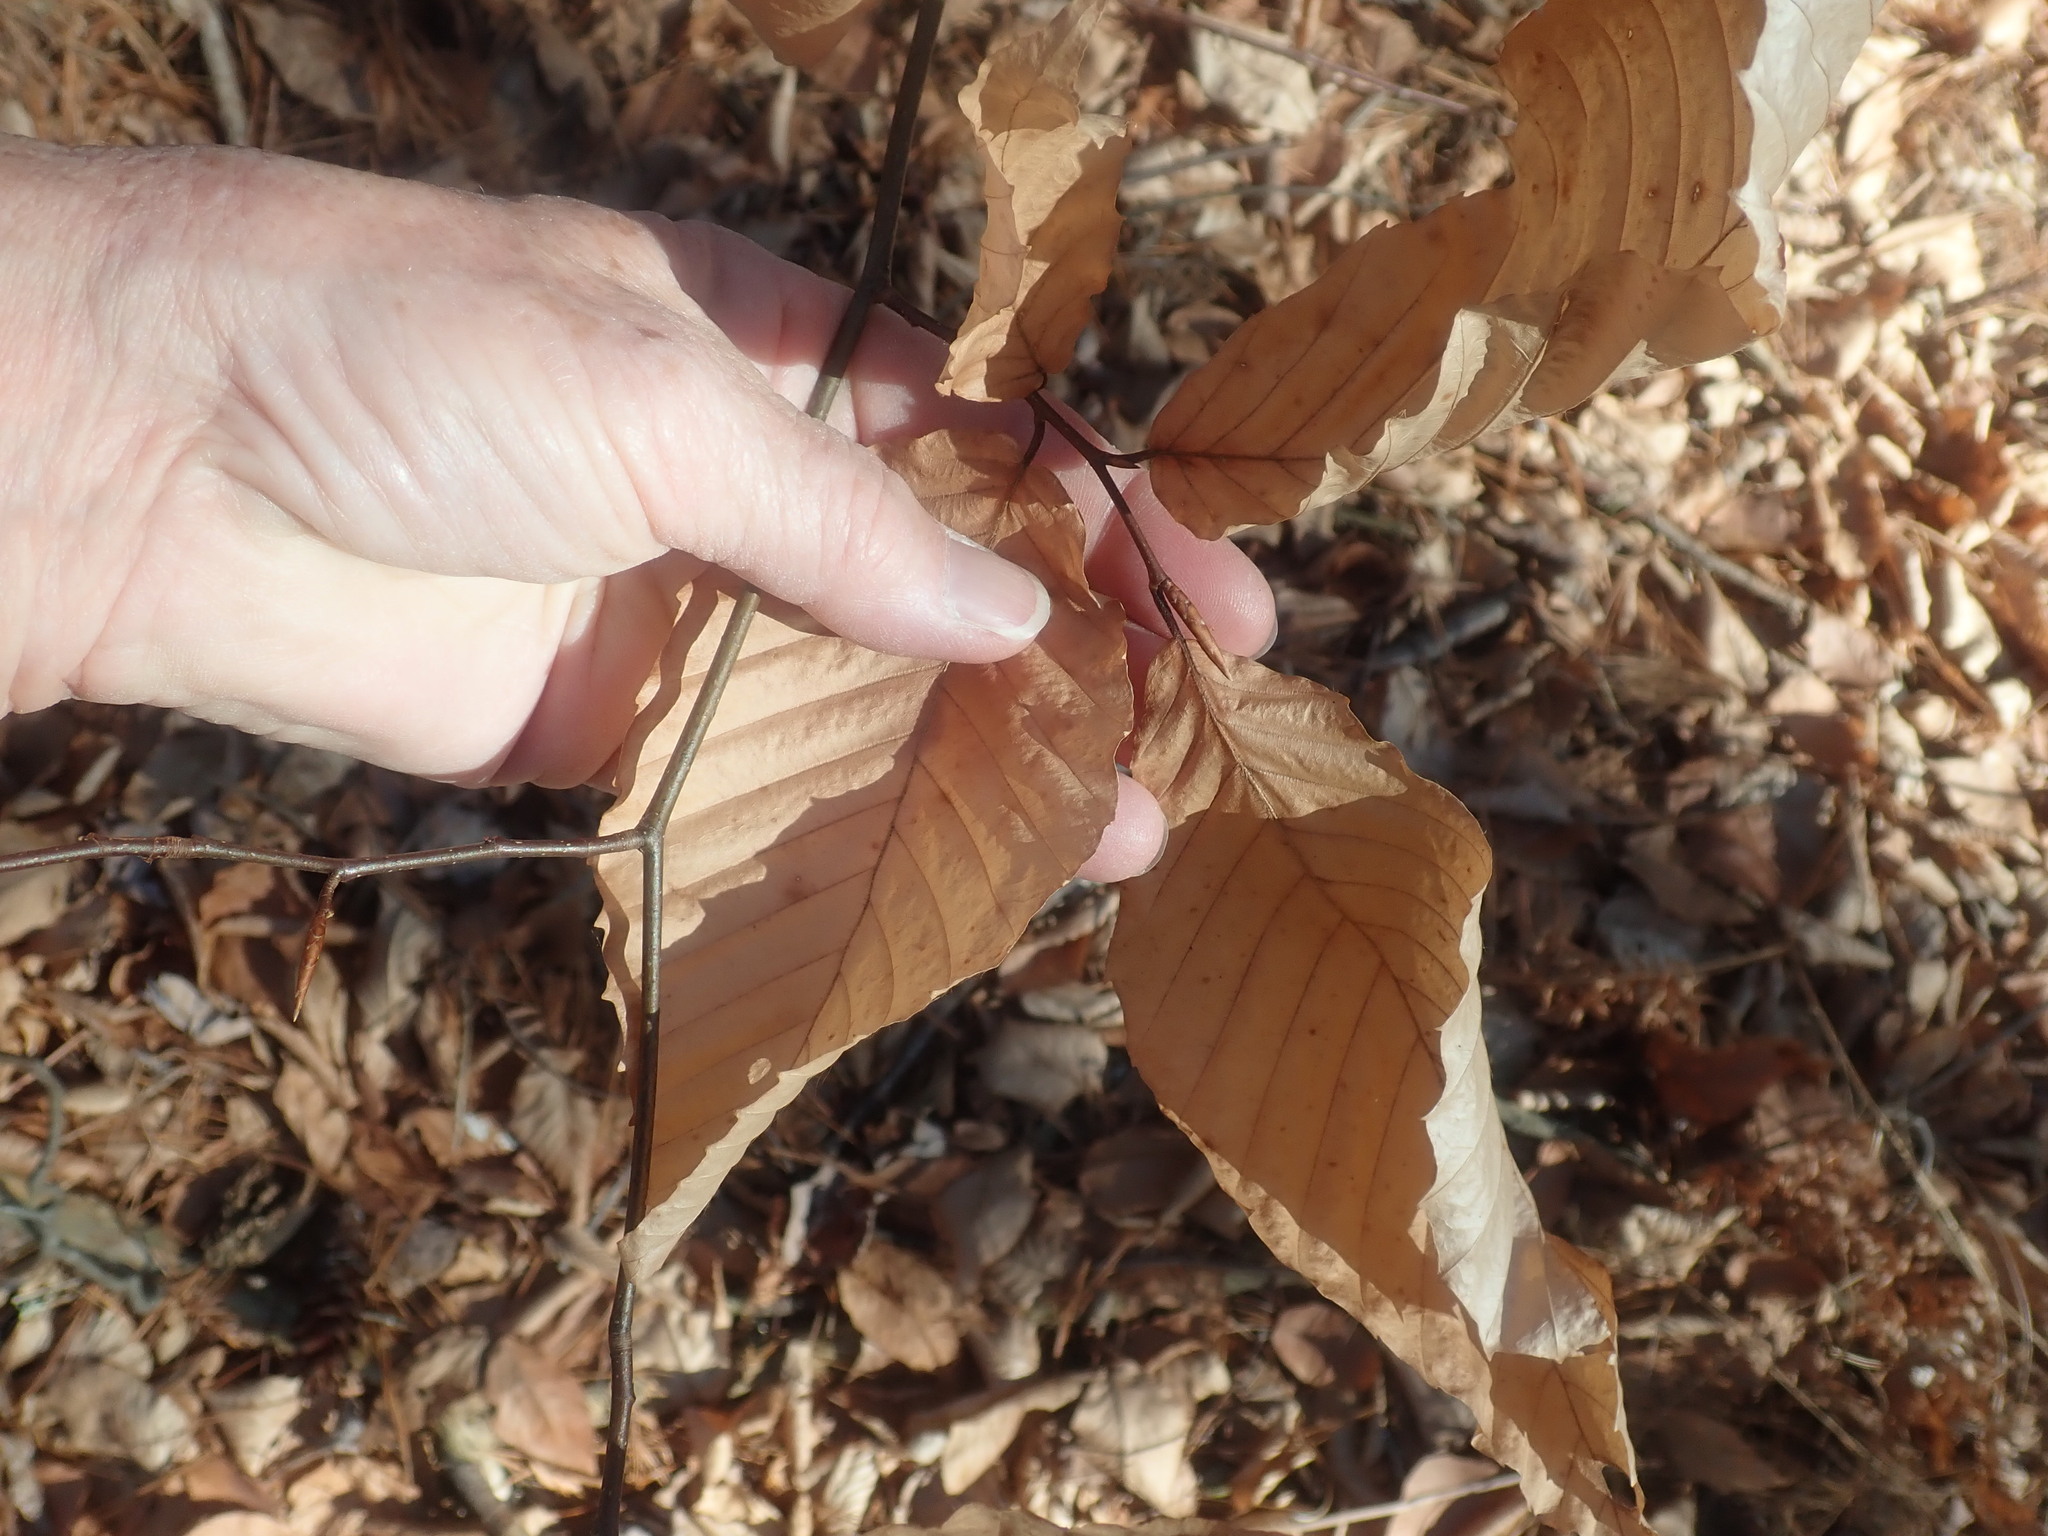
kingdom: Plantae
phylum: Tracheophyta
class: Magnoliopsida
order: Fagales
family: Fagaceae
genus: Fagus
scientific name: Fagus grandifolia
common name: American beech
